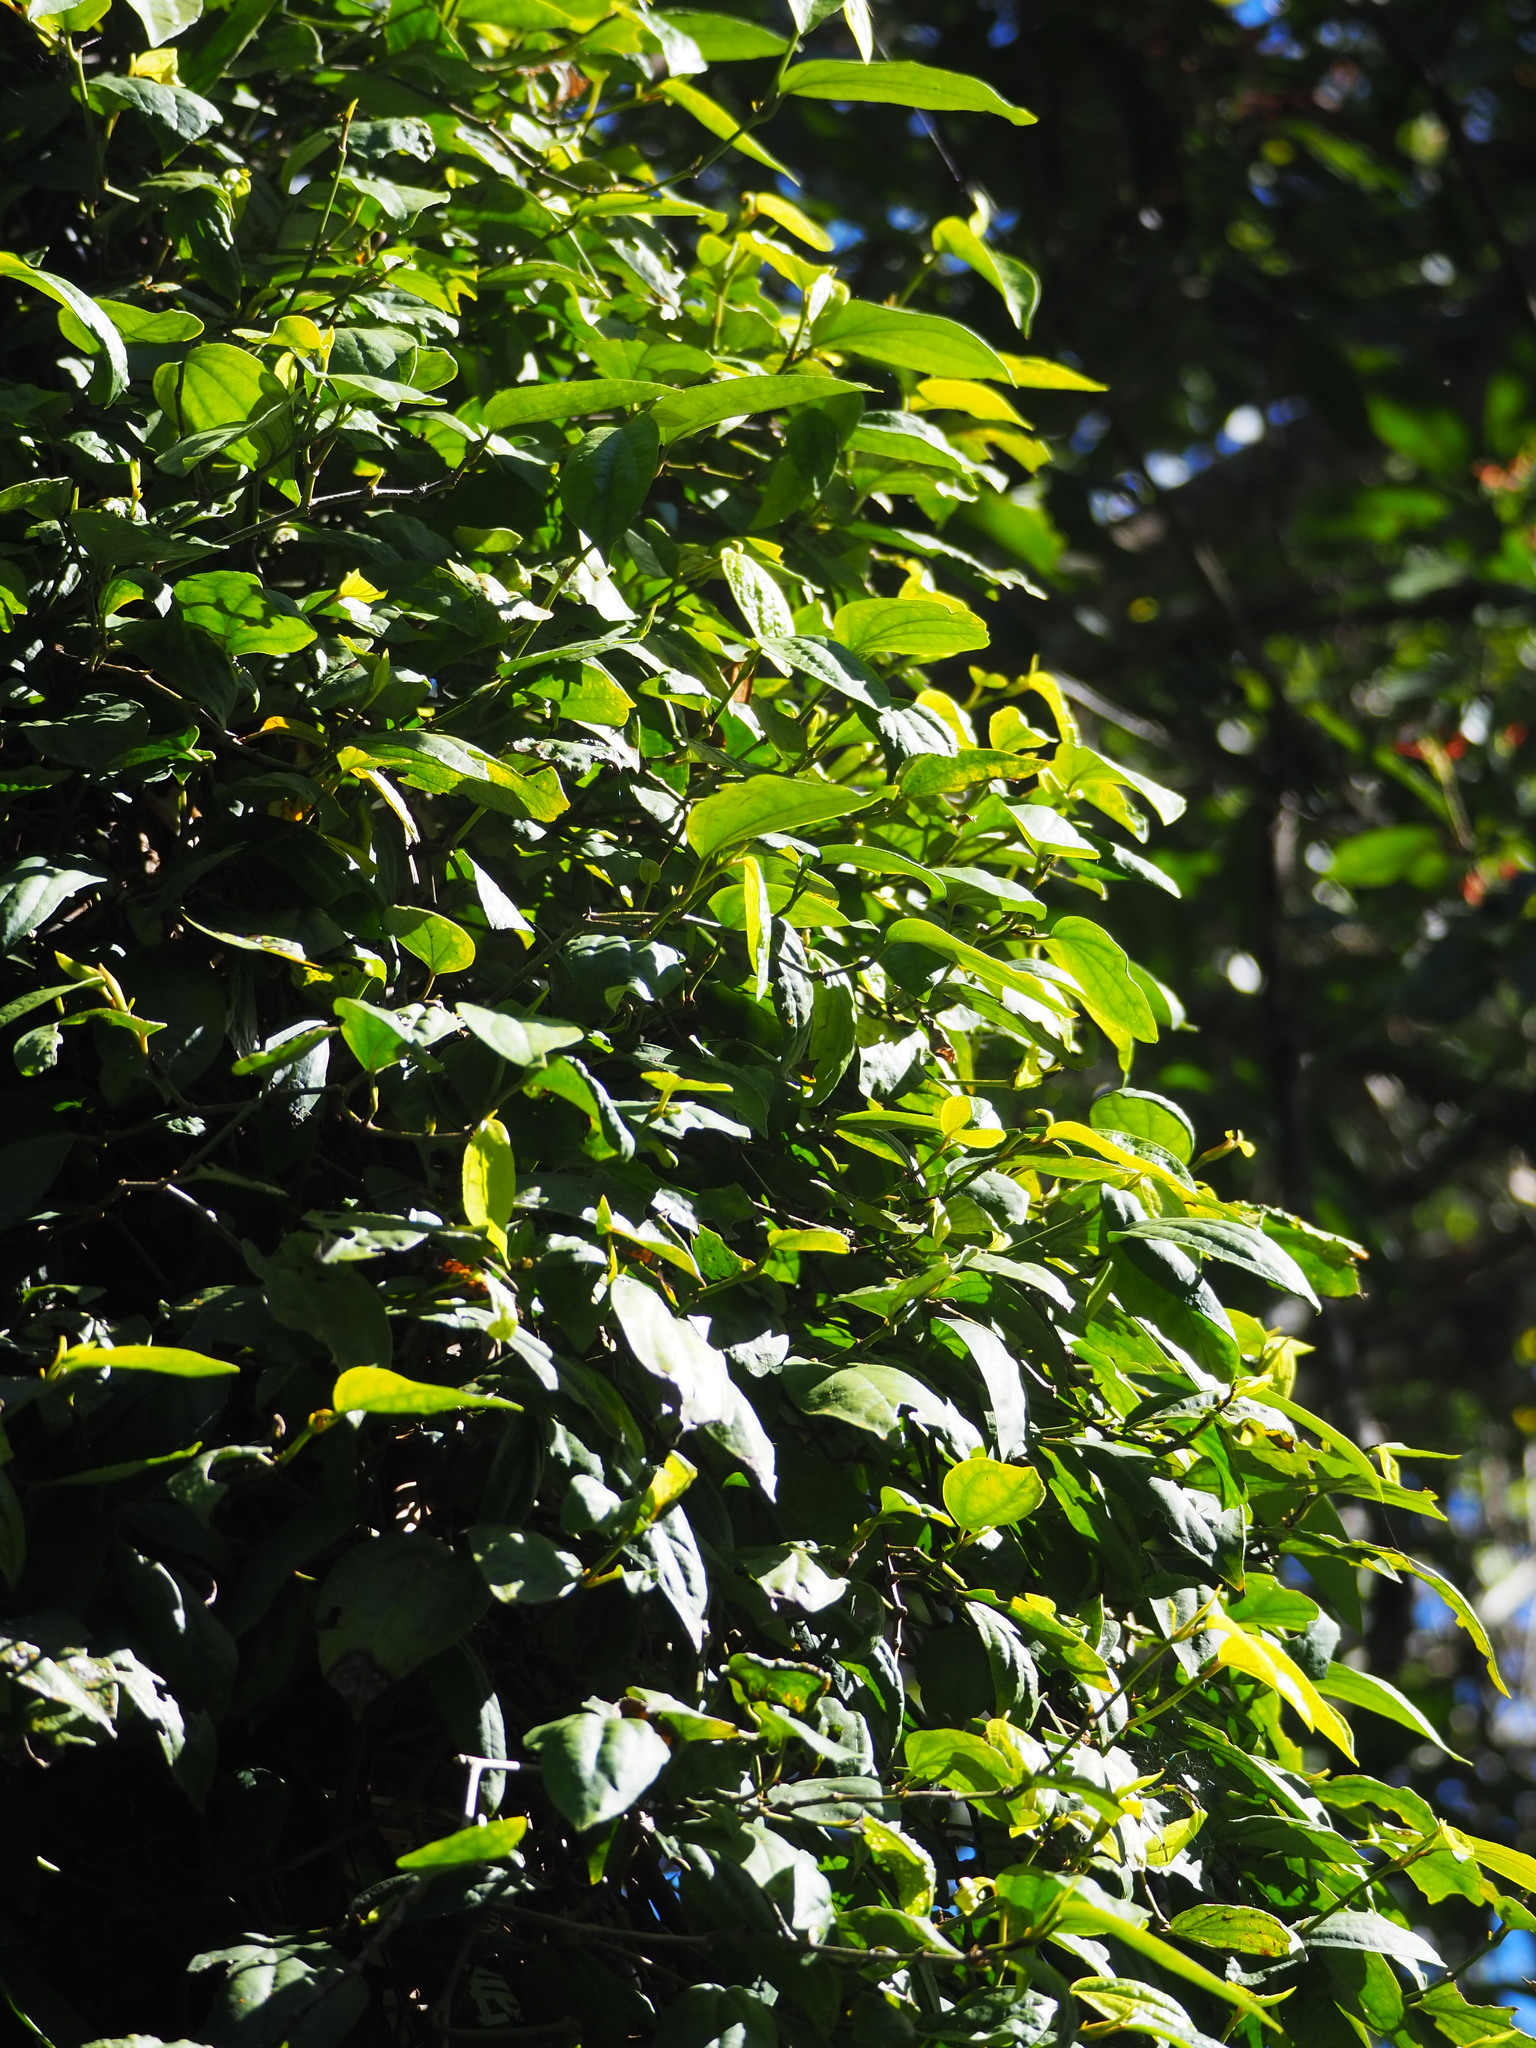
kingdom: Plantae
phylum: Tracheophyta
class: Magnoliopsida
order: Piperales
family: Piperaceae
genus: Piper
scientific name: Piper kadsura
